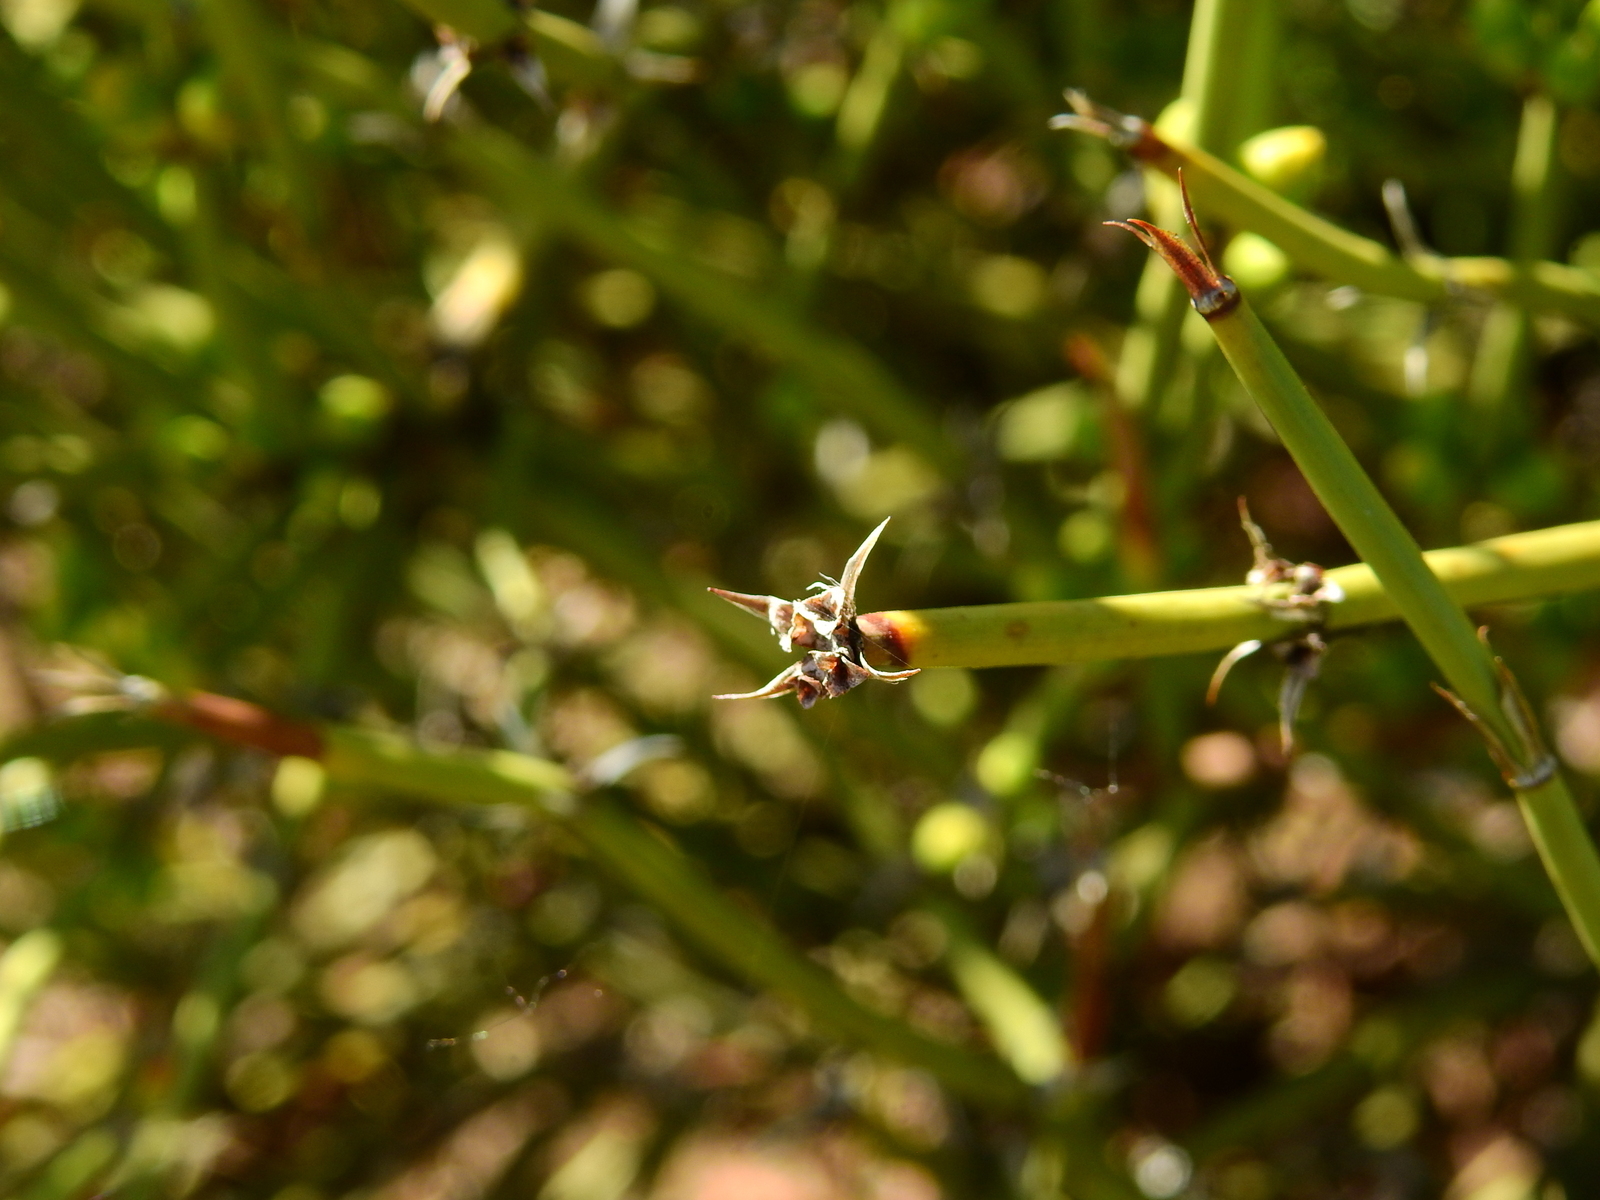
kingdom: Plantae
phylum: Tracheophyta
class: Gnetopsida
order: Ephedrales
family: Ephedraceae
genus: Ephedra
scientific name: Ephedra ochreata
